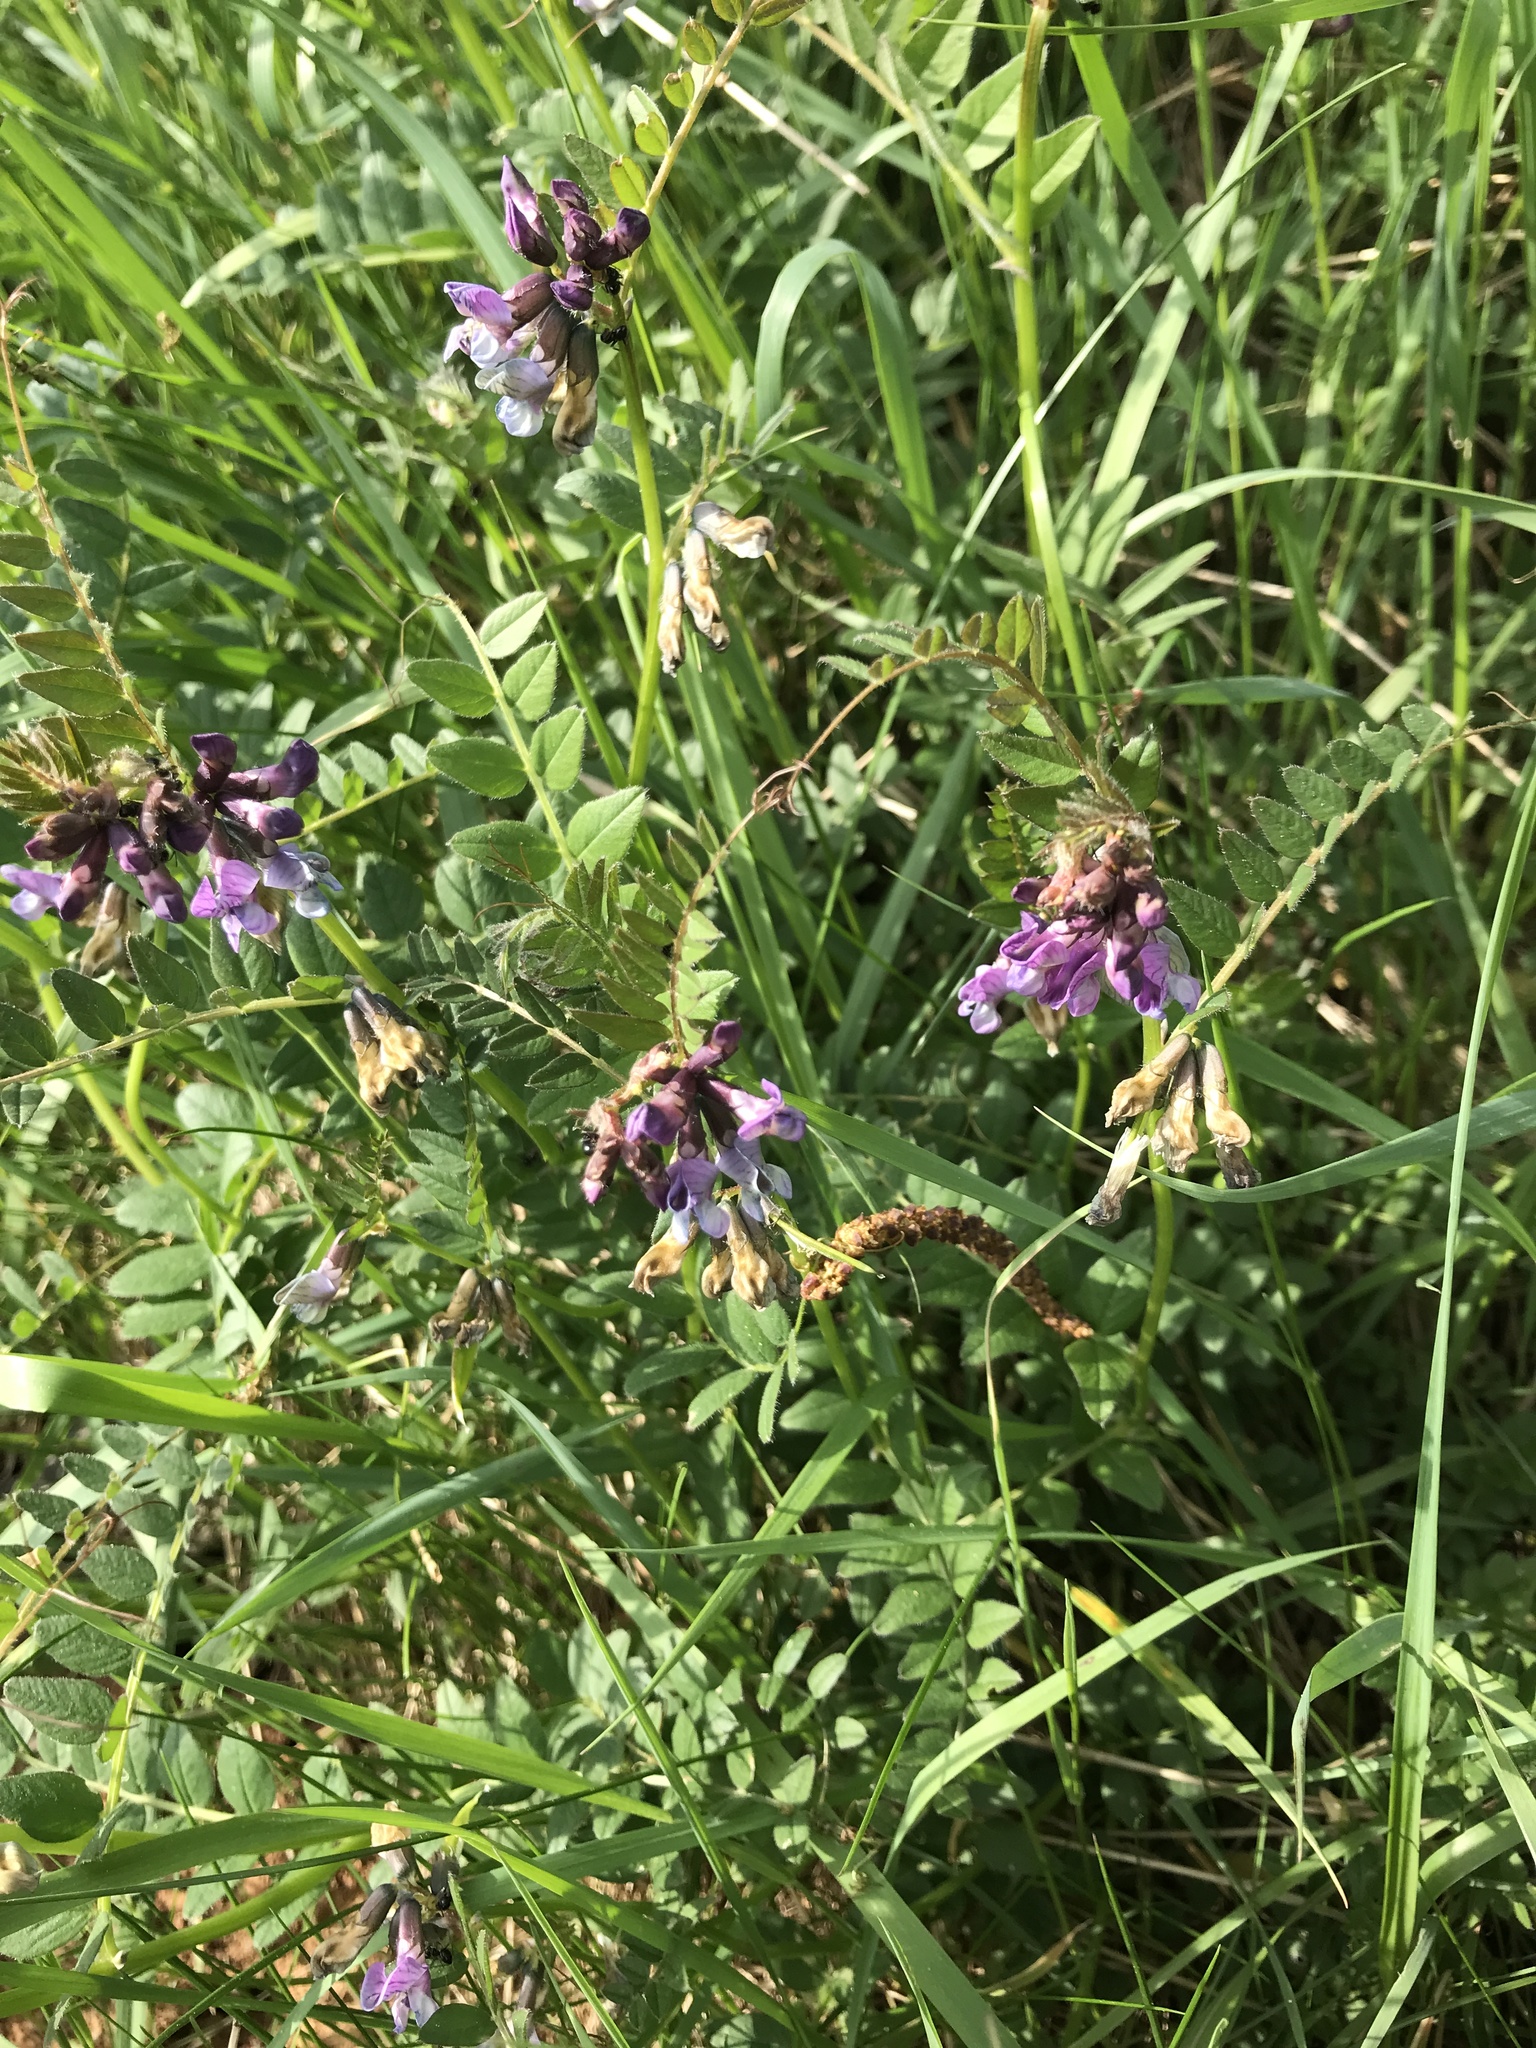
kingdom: Plantae
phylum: Tracheophyta
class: Magnoliopsida
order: Fabales
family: Fabaceae
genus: Vicia
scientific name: Vicia sepium
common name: Bush vetch
